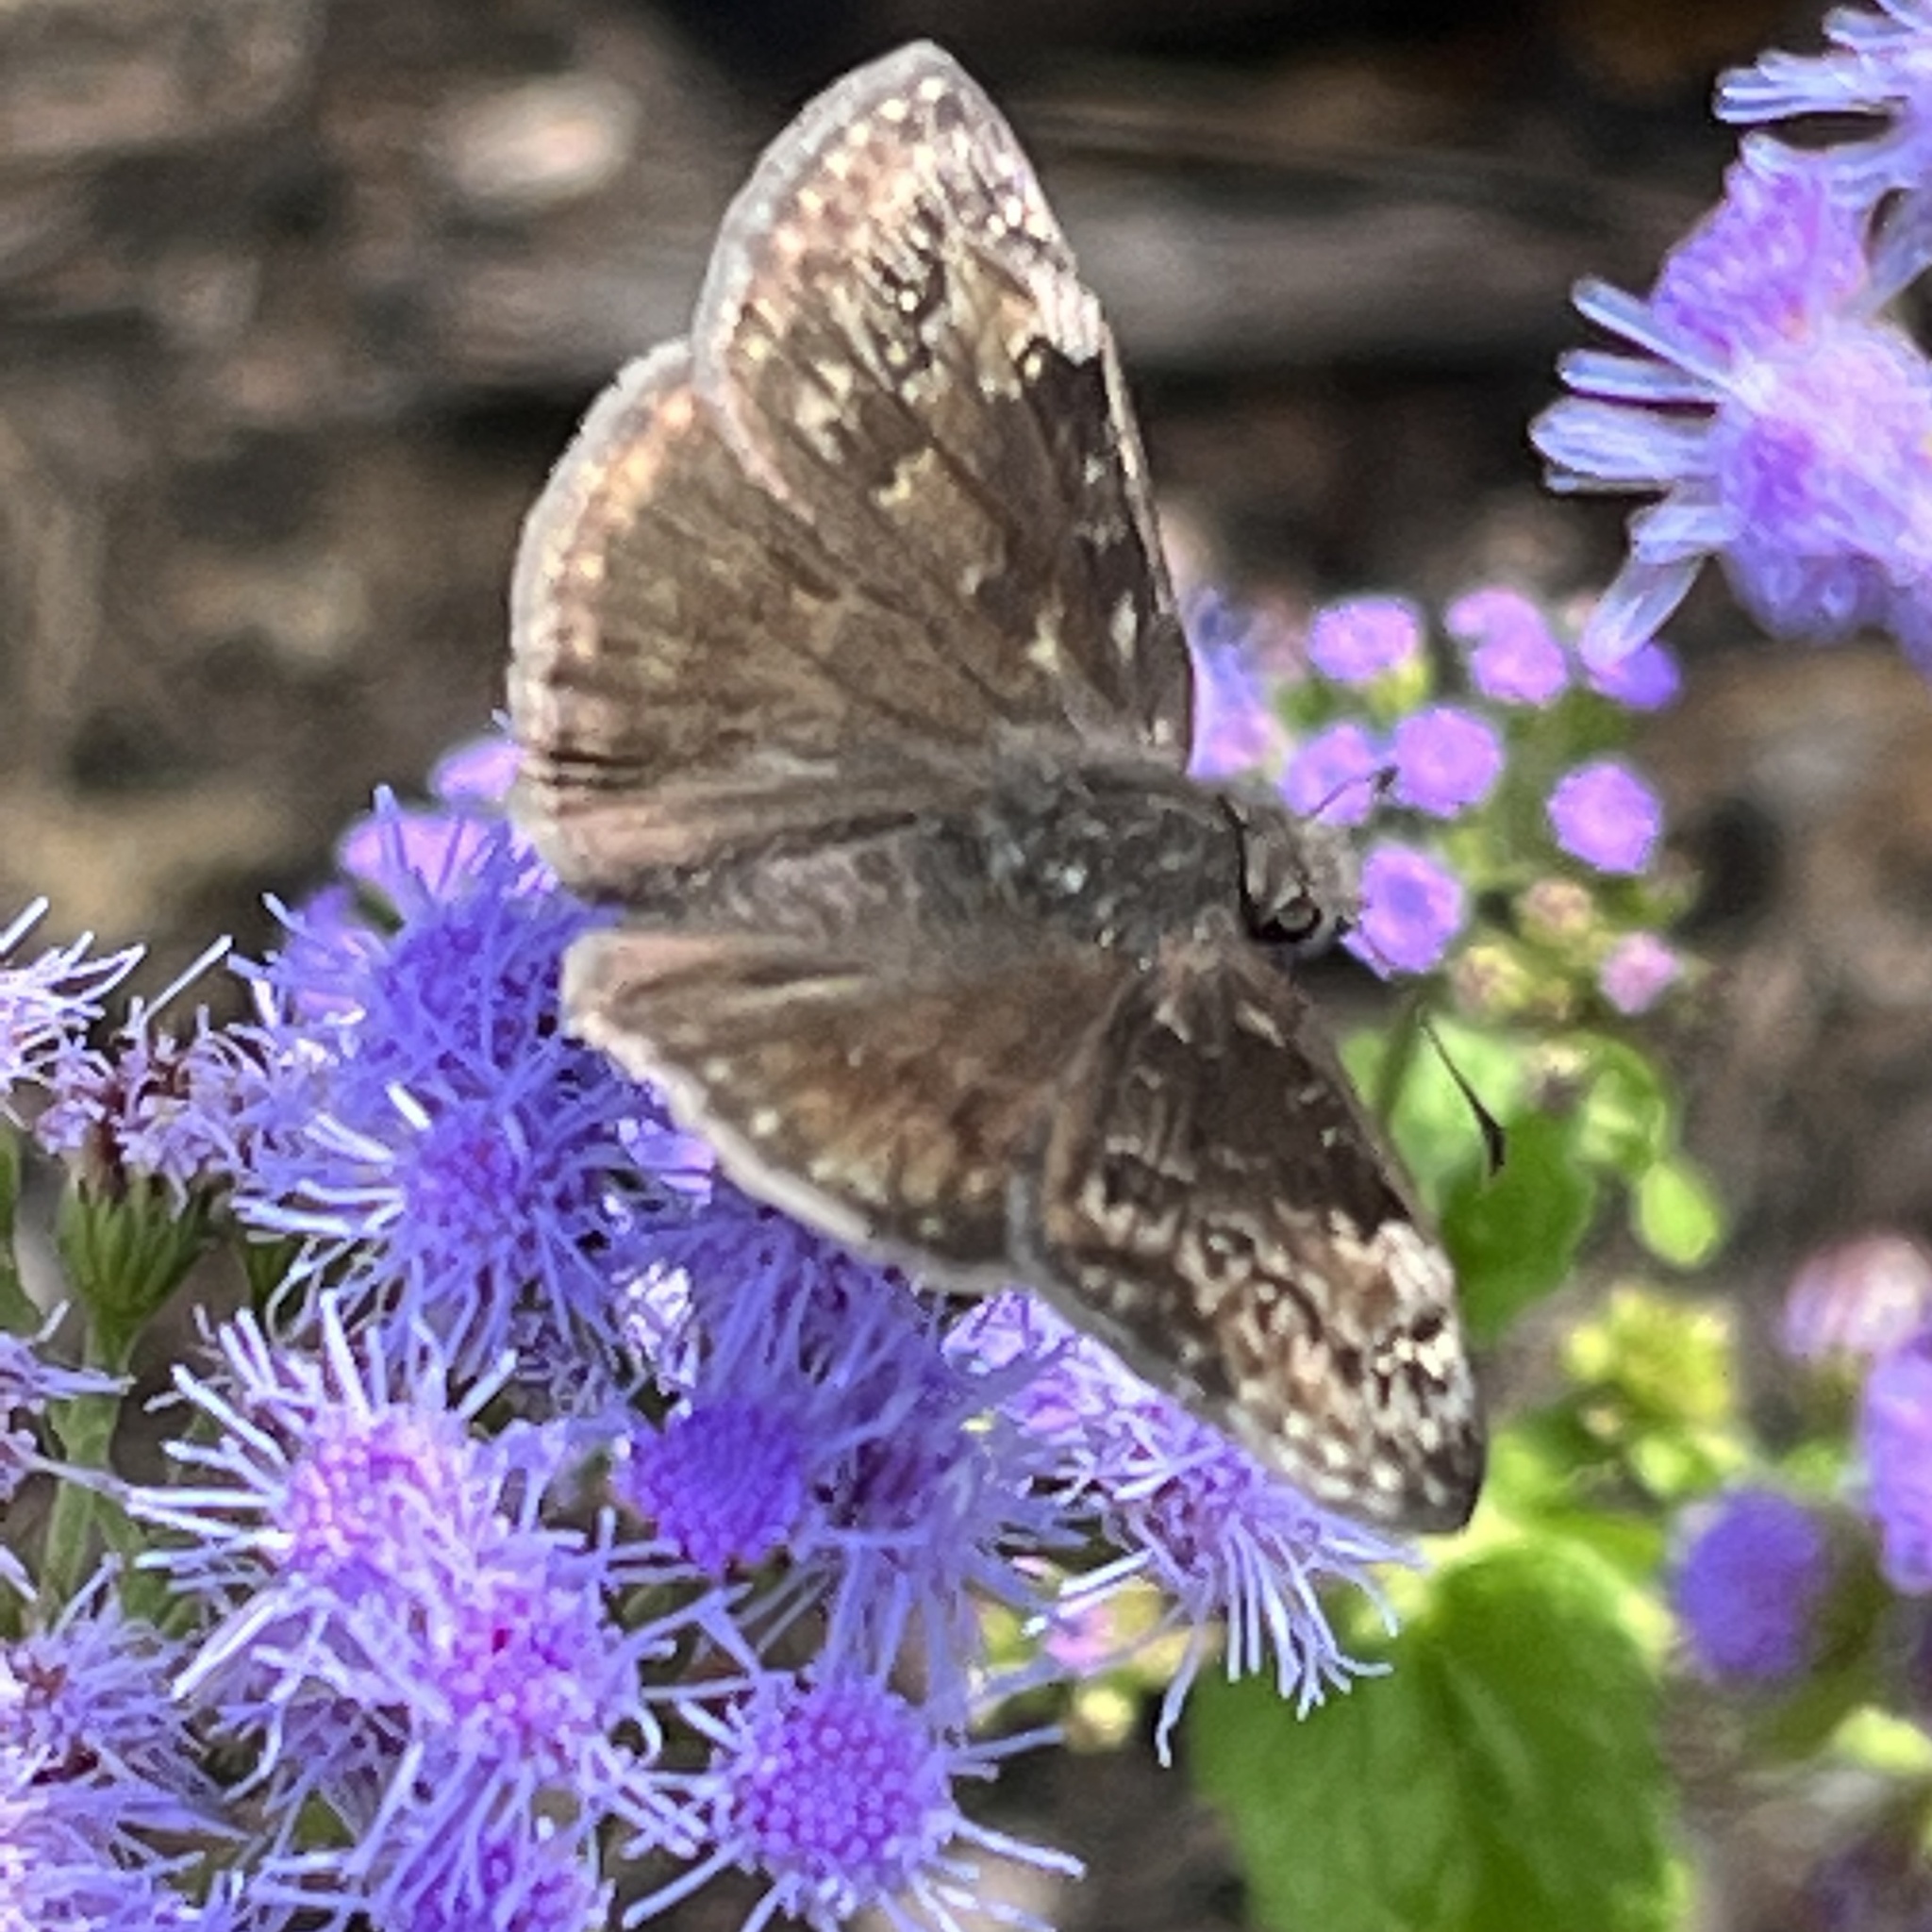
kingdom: Animalia
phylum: Arthropoda
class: Insecta
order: Lepidoptera
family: Hesperiidae
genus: Erynnis
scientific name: Erynnis baptisiae
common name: Wild indigo duskywing
